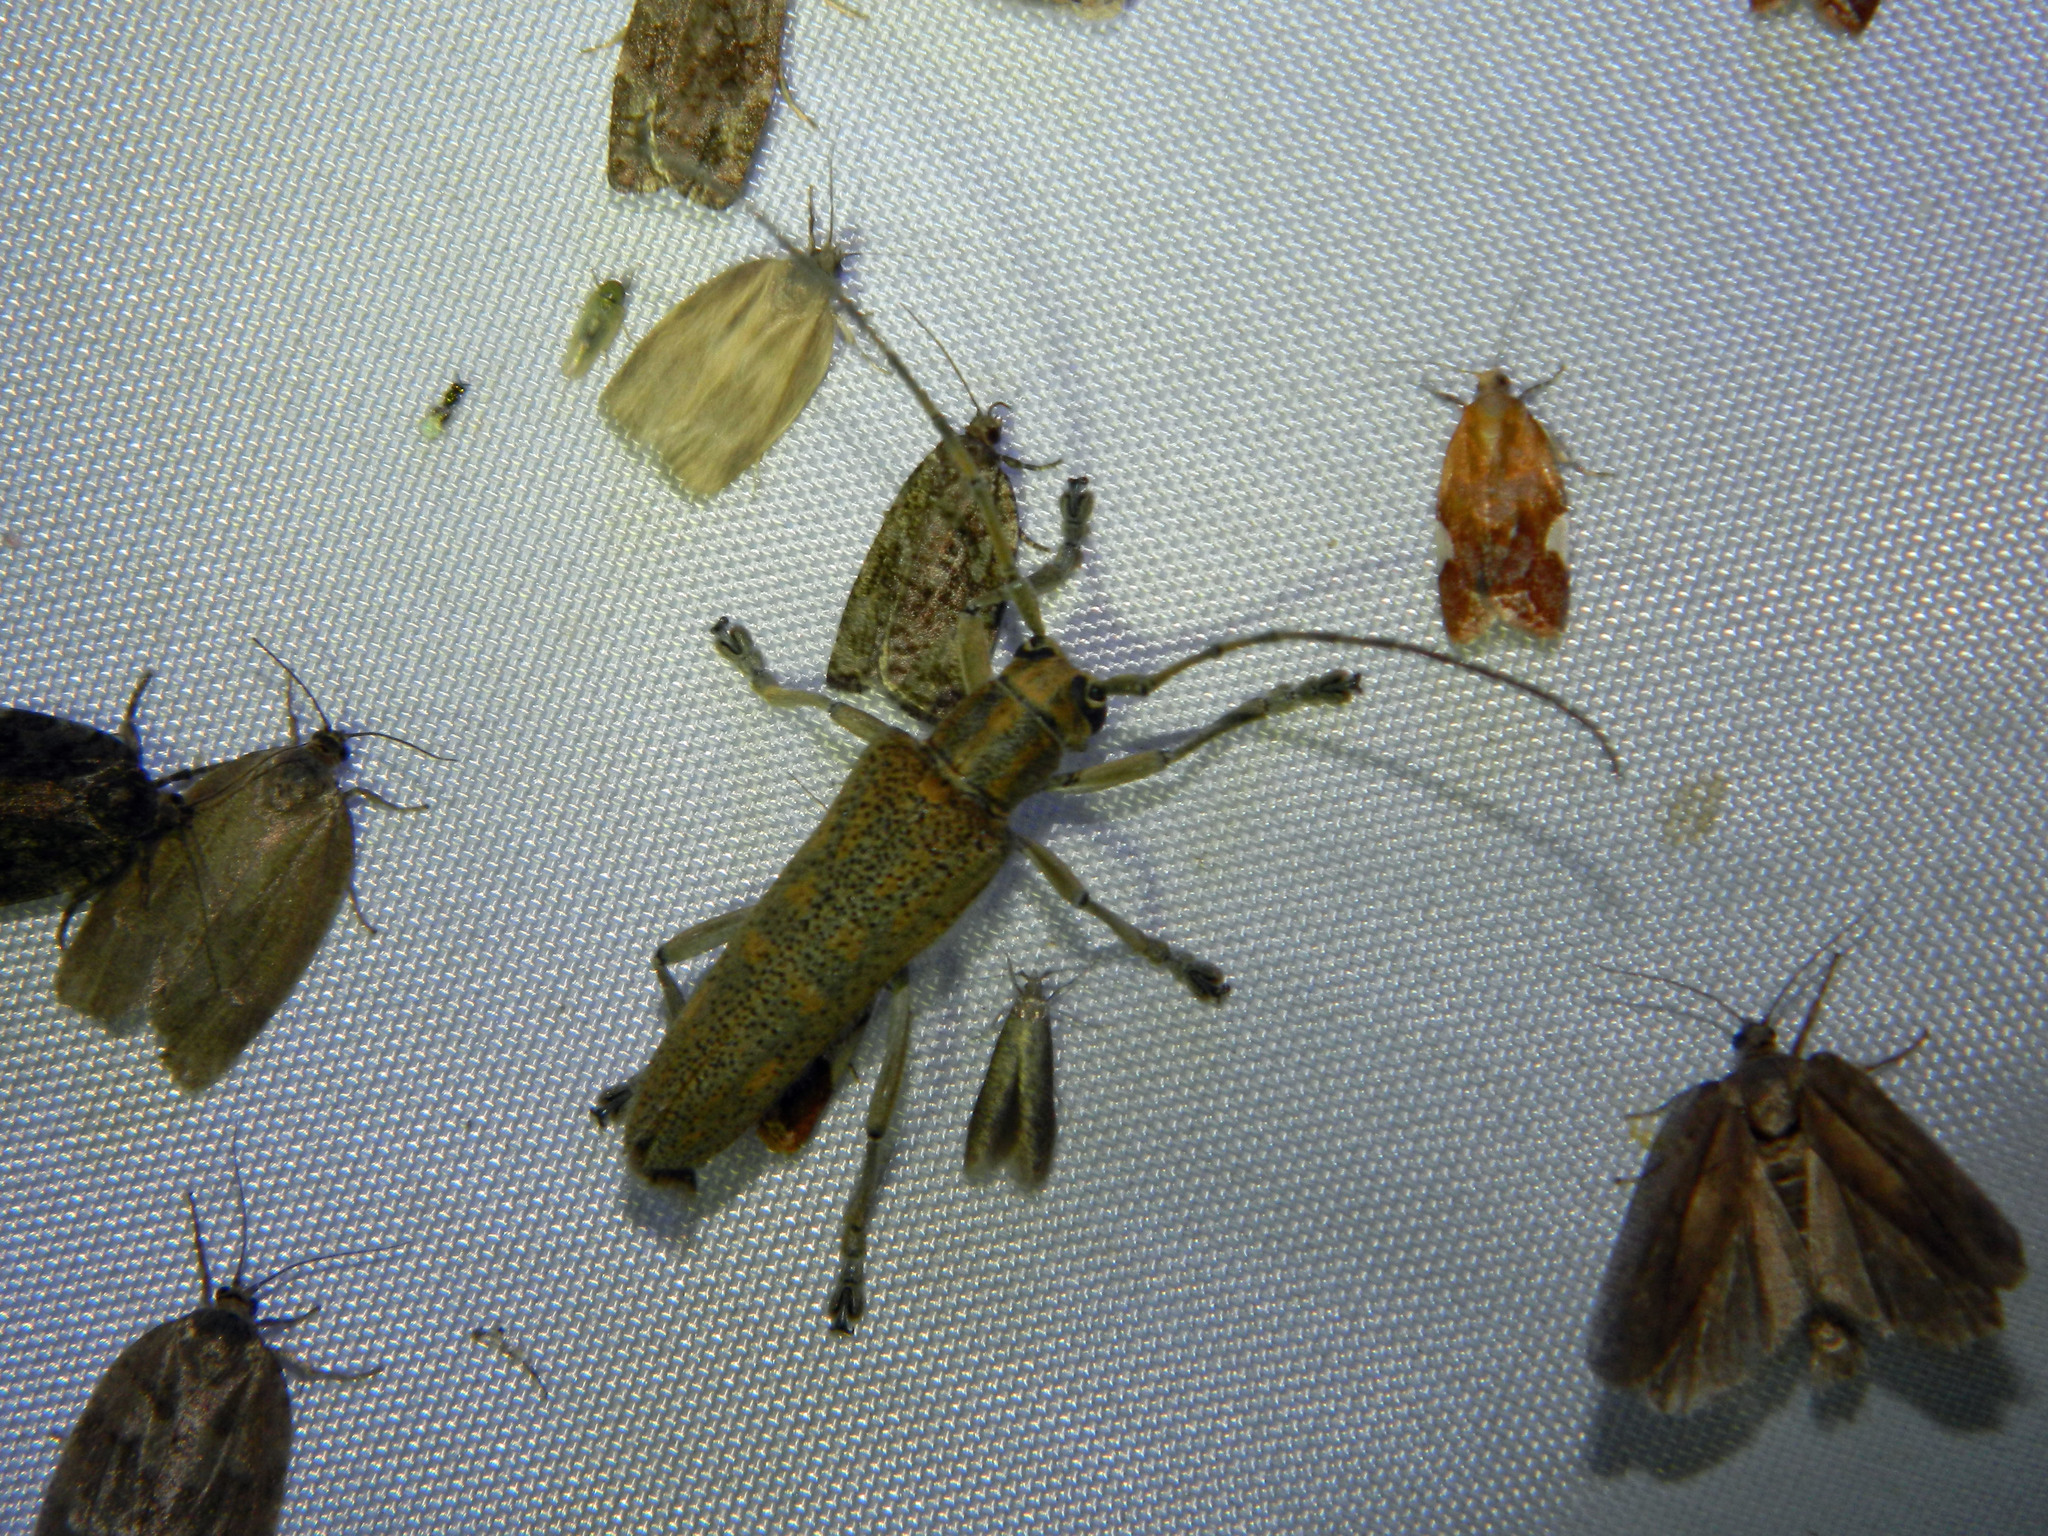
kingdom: Animalia
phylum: Arthropoda
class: Insecta
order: Coleoptera
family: Cerambycidae
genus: Saperda
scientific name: Saperda calcarata
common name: Poplar borer
